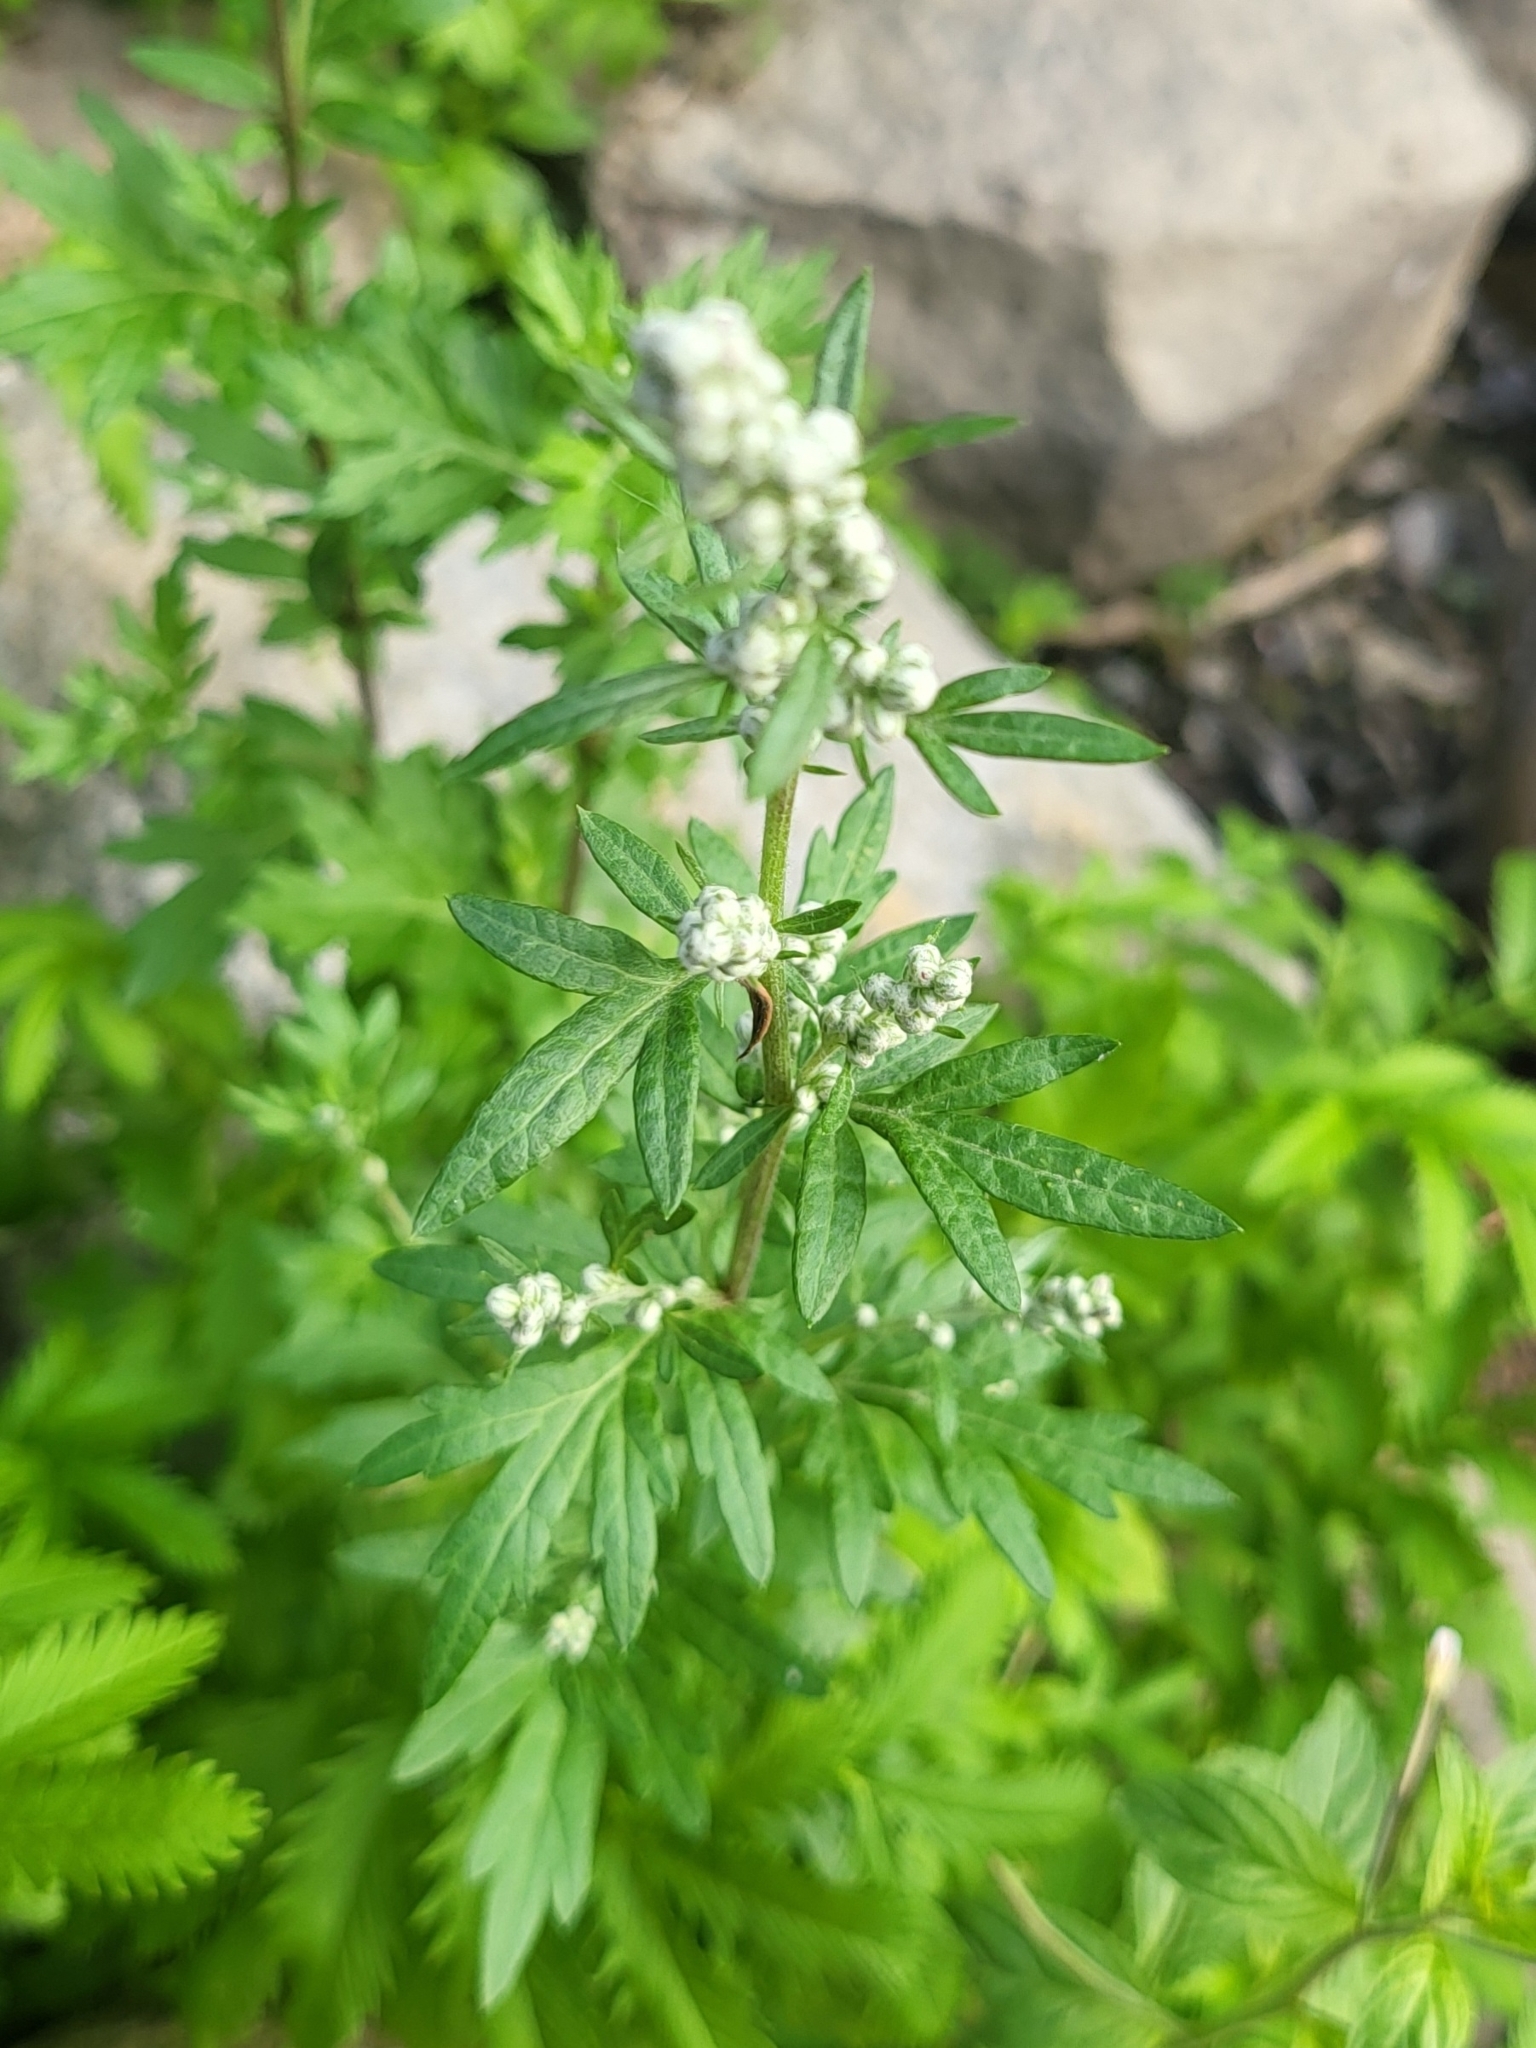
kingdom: Plantae
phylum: Tracheophyta
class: Magnoliopsida
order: Asterales
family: Asteraceae
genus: Artemisia
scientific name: Artemisia vulgaris
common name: Mugwort
